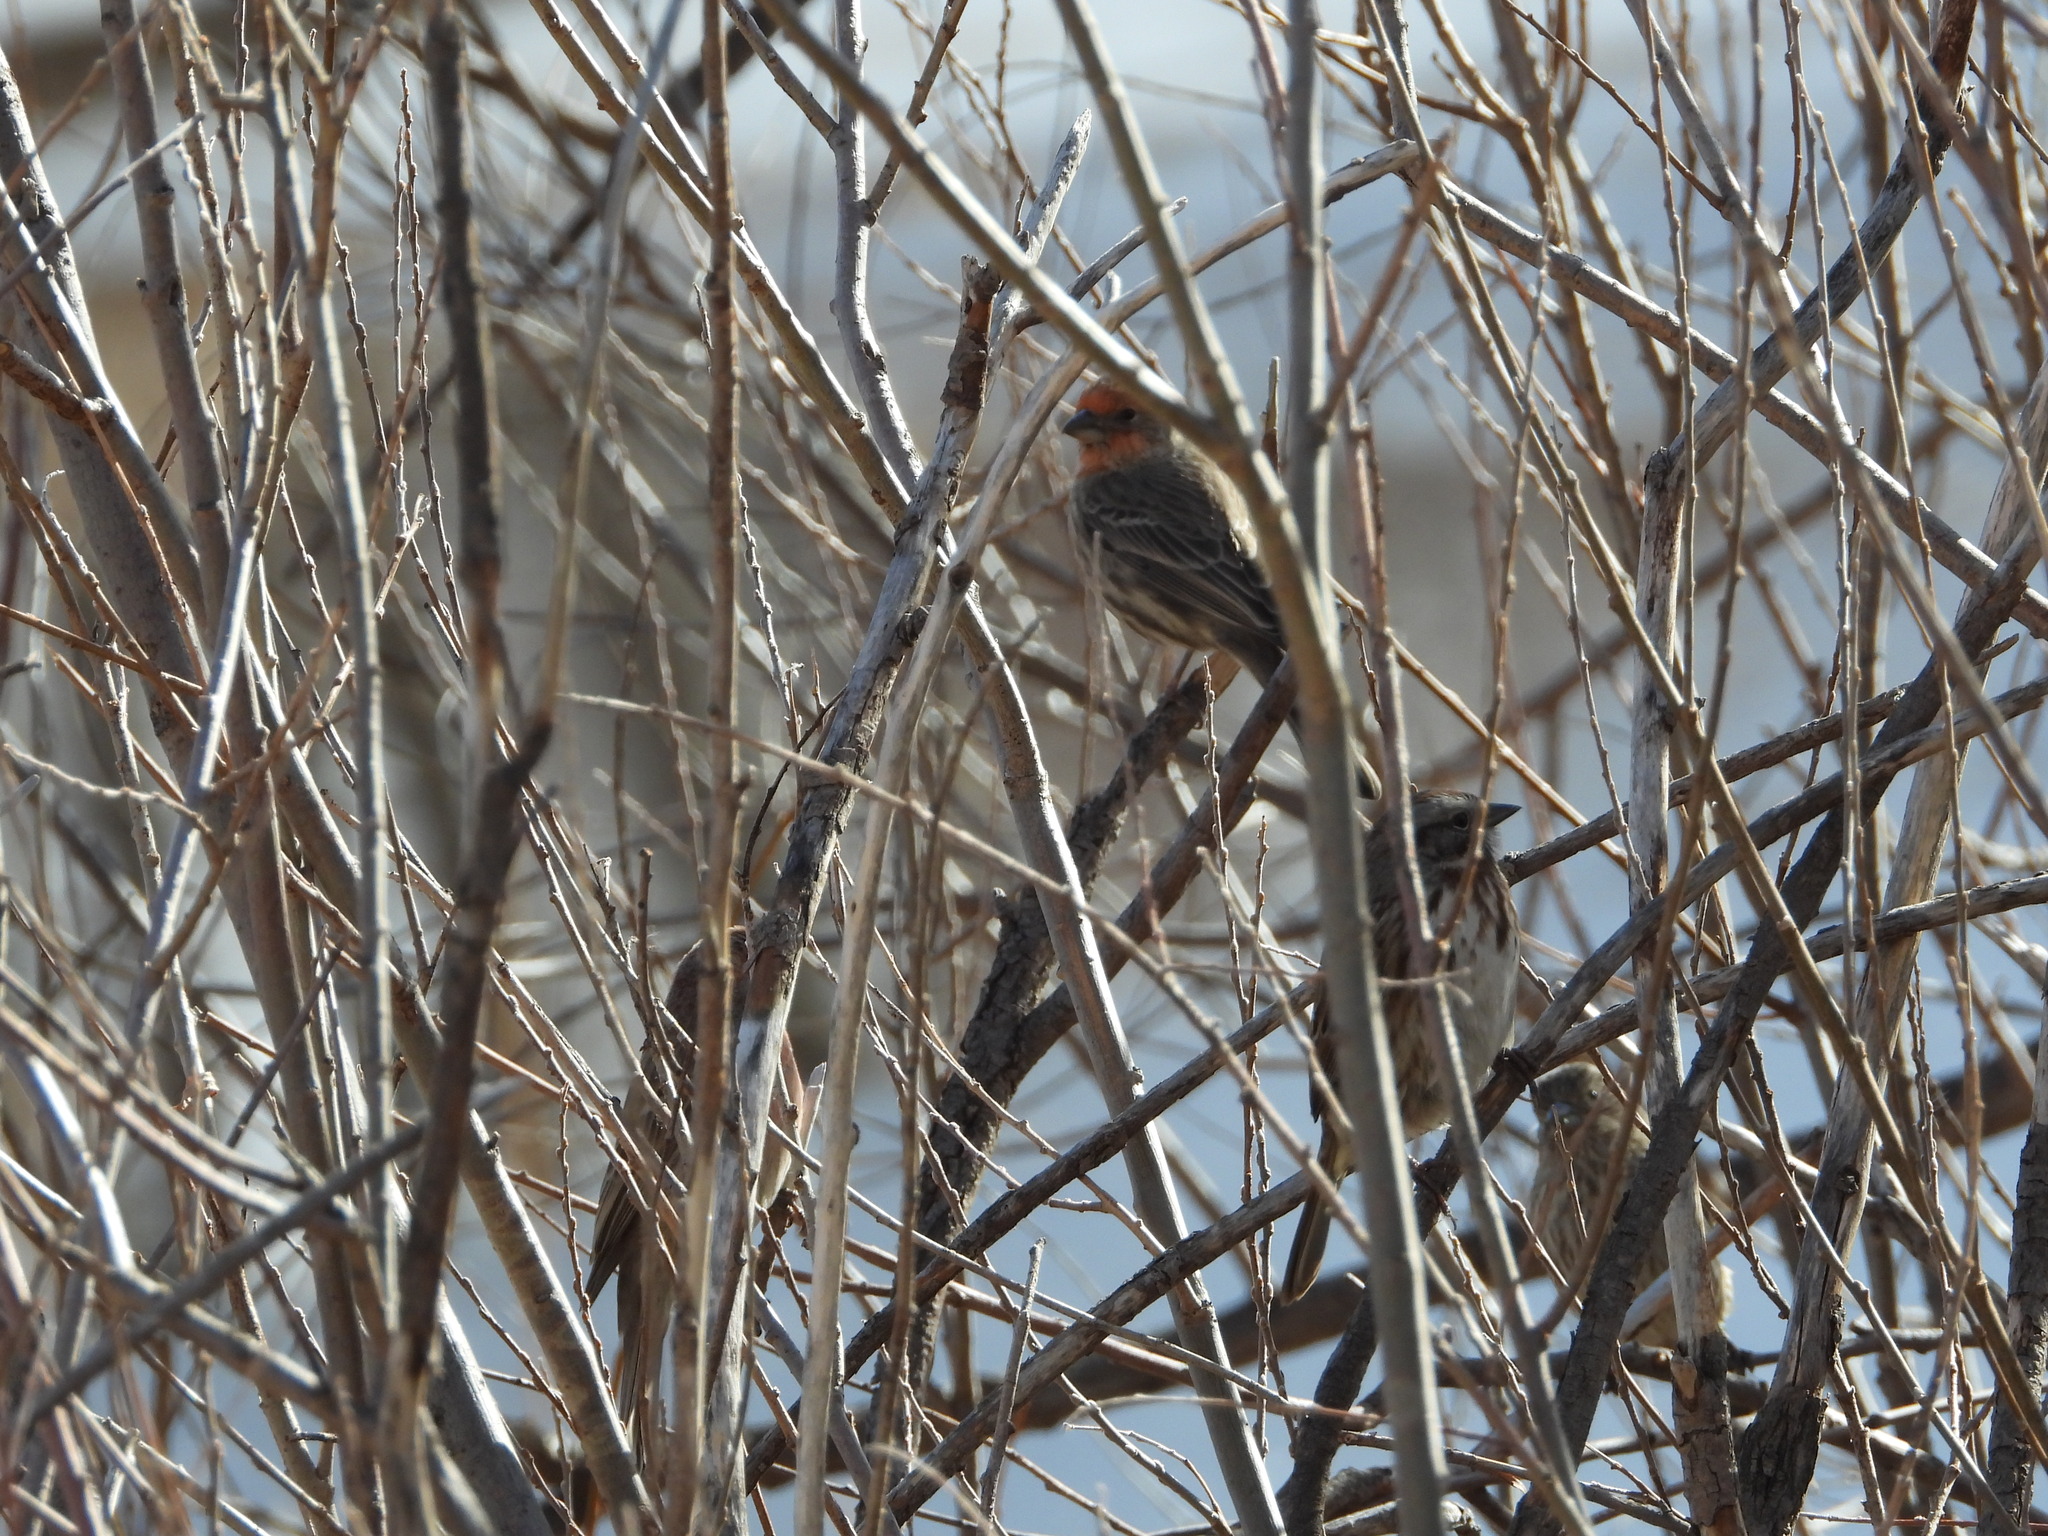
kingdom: Animalia
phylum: Chordata
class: Aves
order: Passeriformes
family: Fringillidae
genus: Haemorhous
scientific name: Haemorhous mexicanus
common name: House finch
